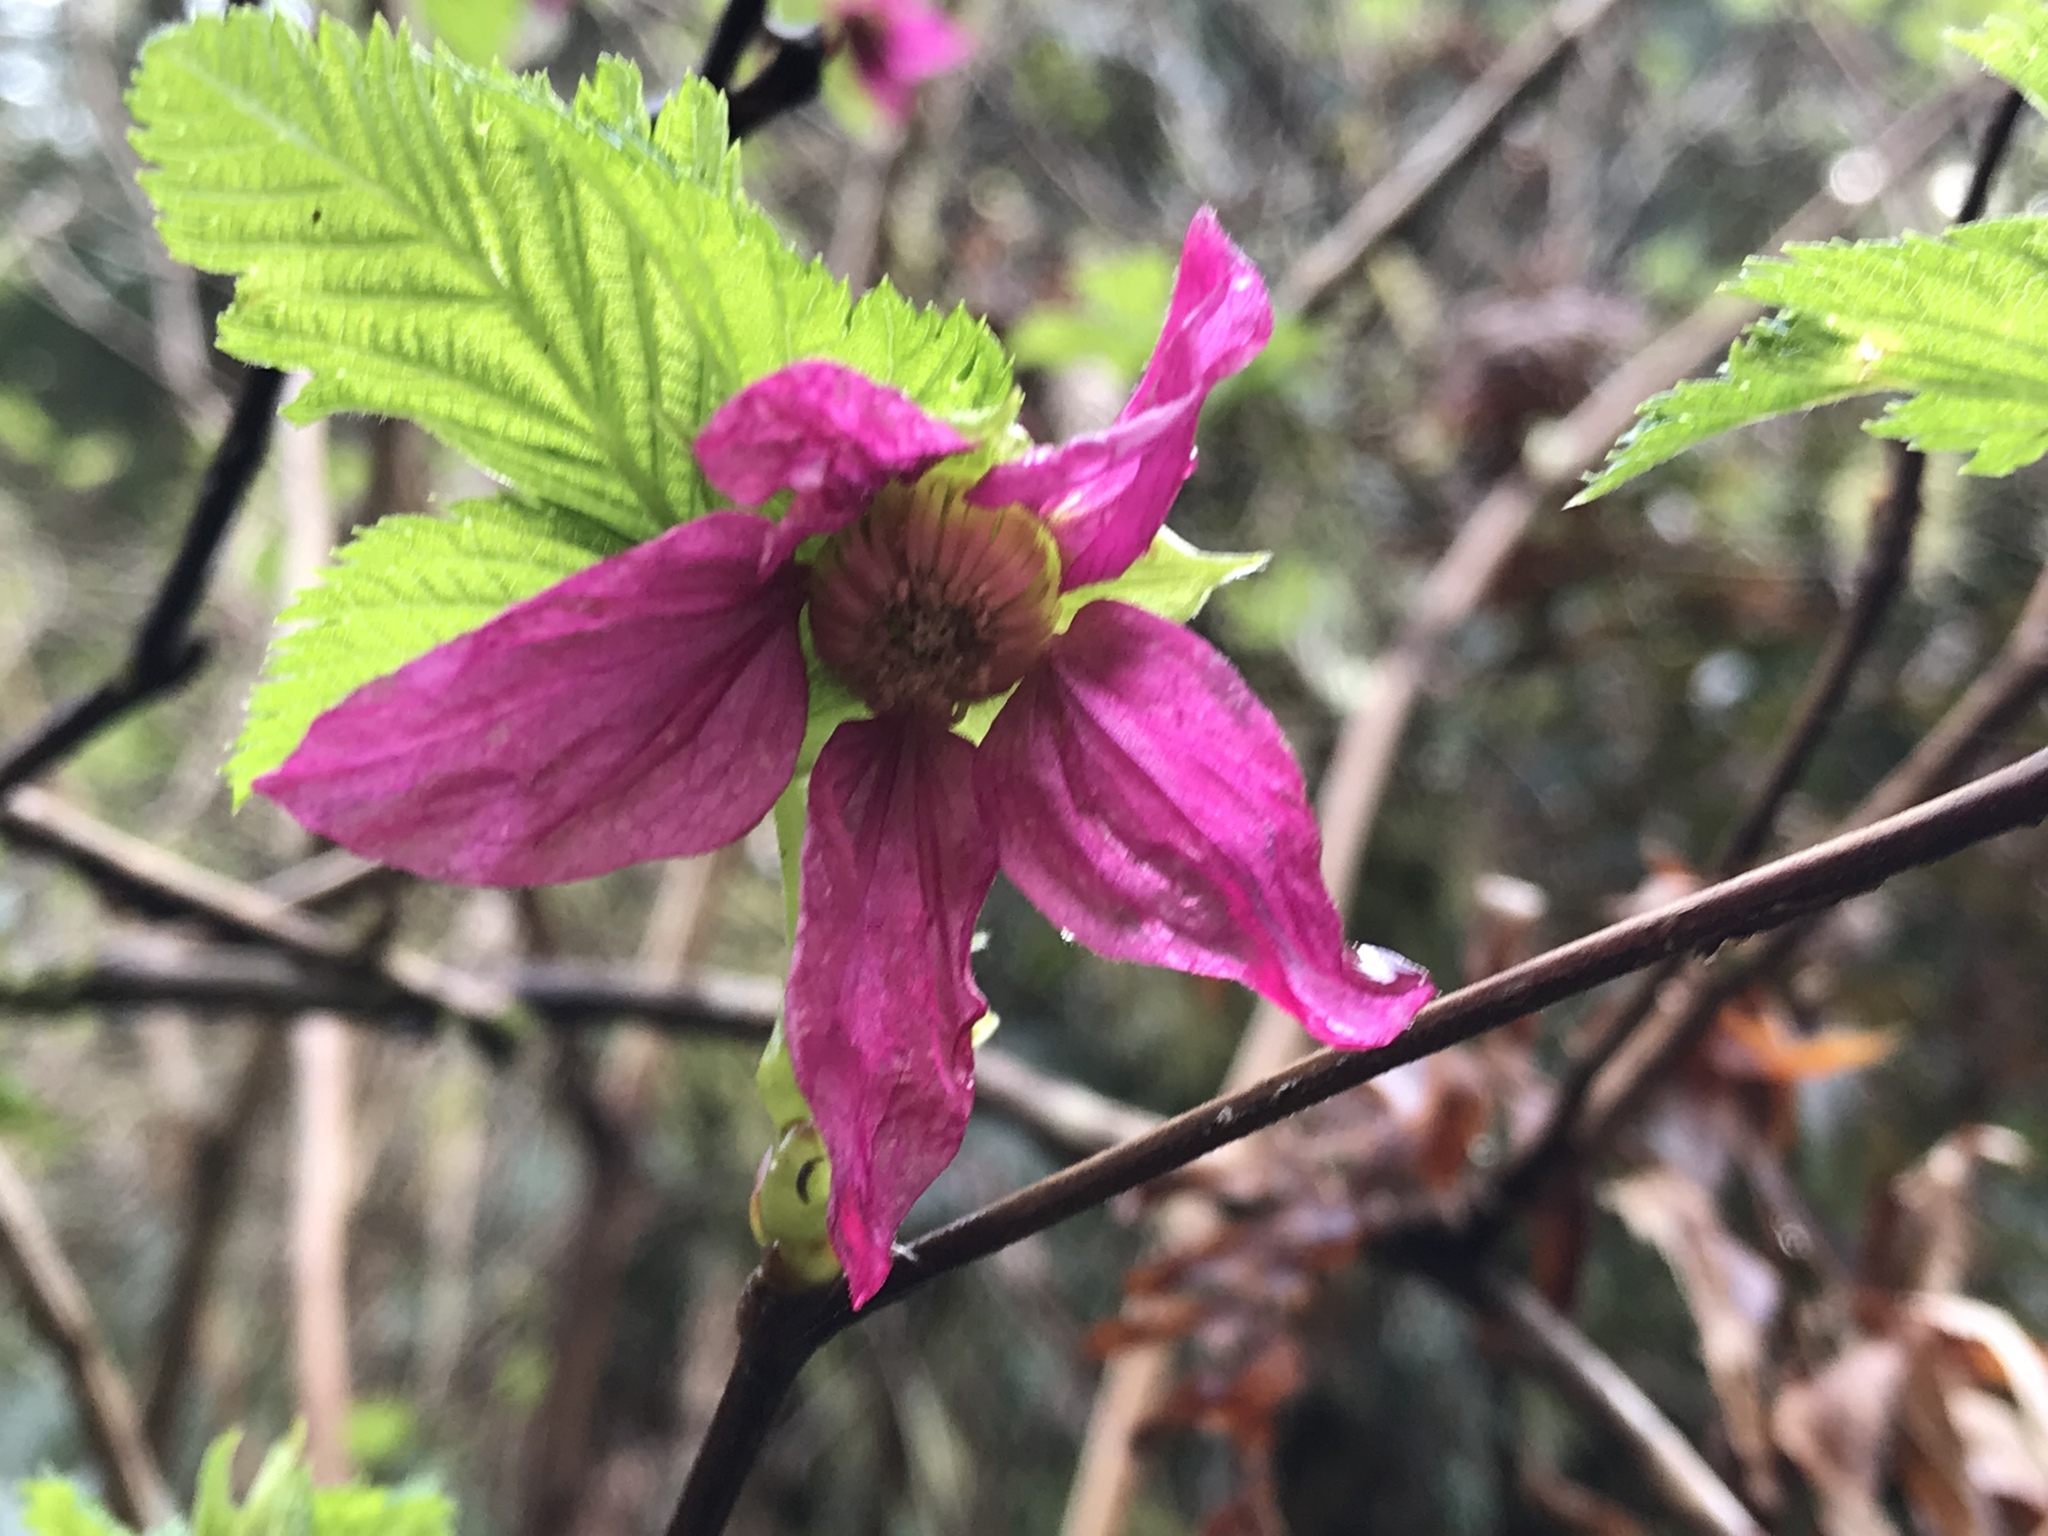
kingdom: Plantae
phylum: Tracheophyta
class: Magnoliopsida
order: Rosales
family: Rosaceae
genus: Rubus
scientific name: Rubus spectabilis
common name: Salmonberry
